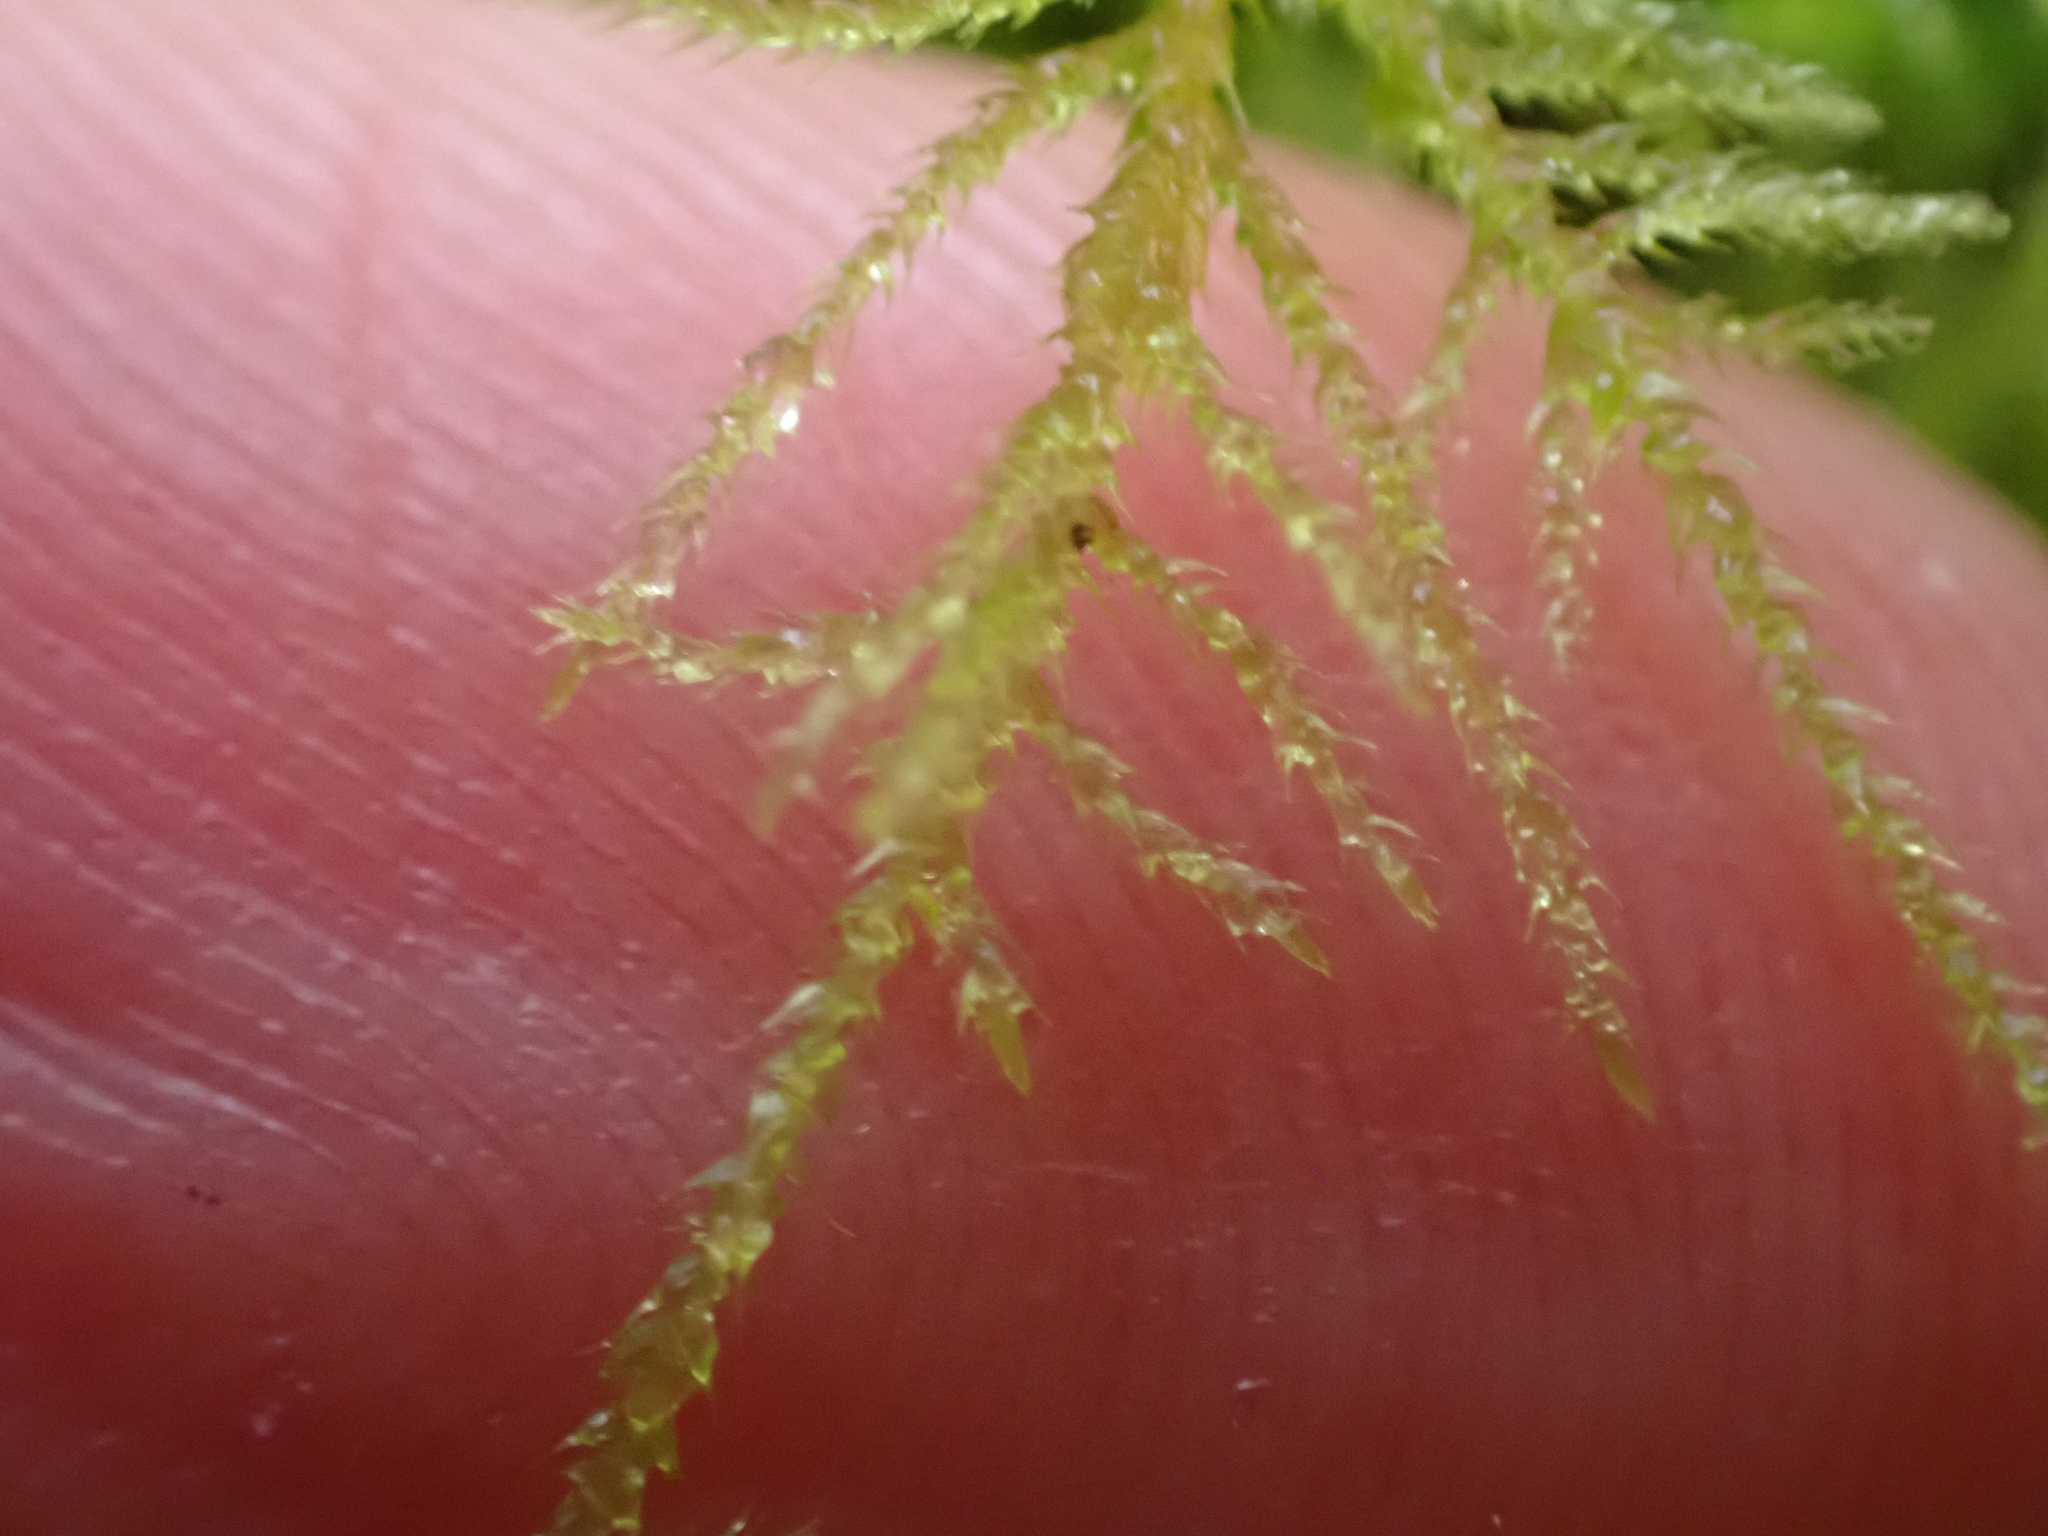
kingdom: Plantae
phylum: Bryophyta
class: Bryopsida
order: Hypnales
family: Brachytheciaceae
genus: Kindbergia
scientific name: Kindbergia praelonga
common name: Slender beaked moss
